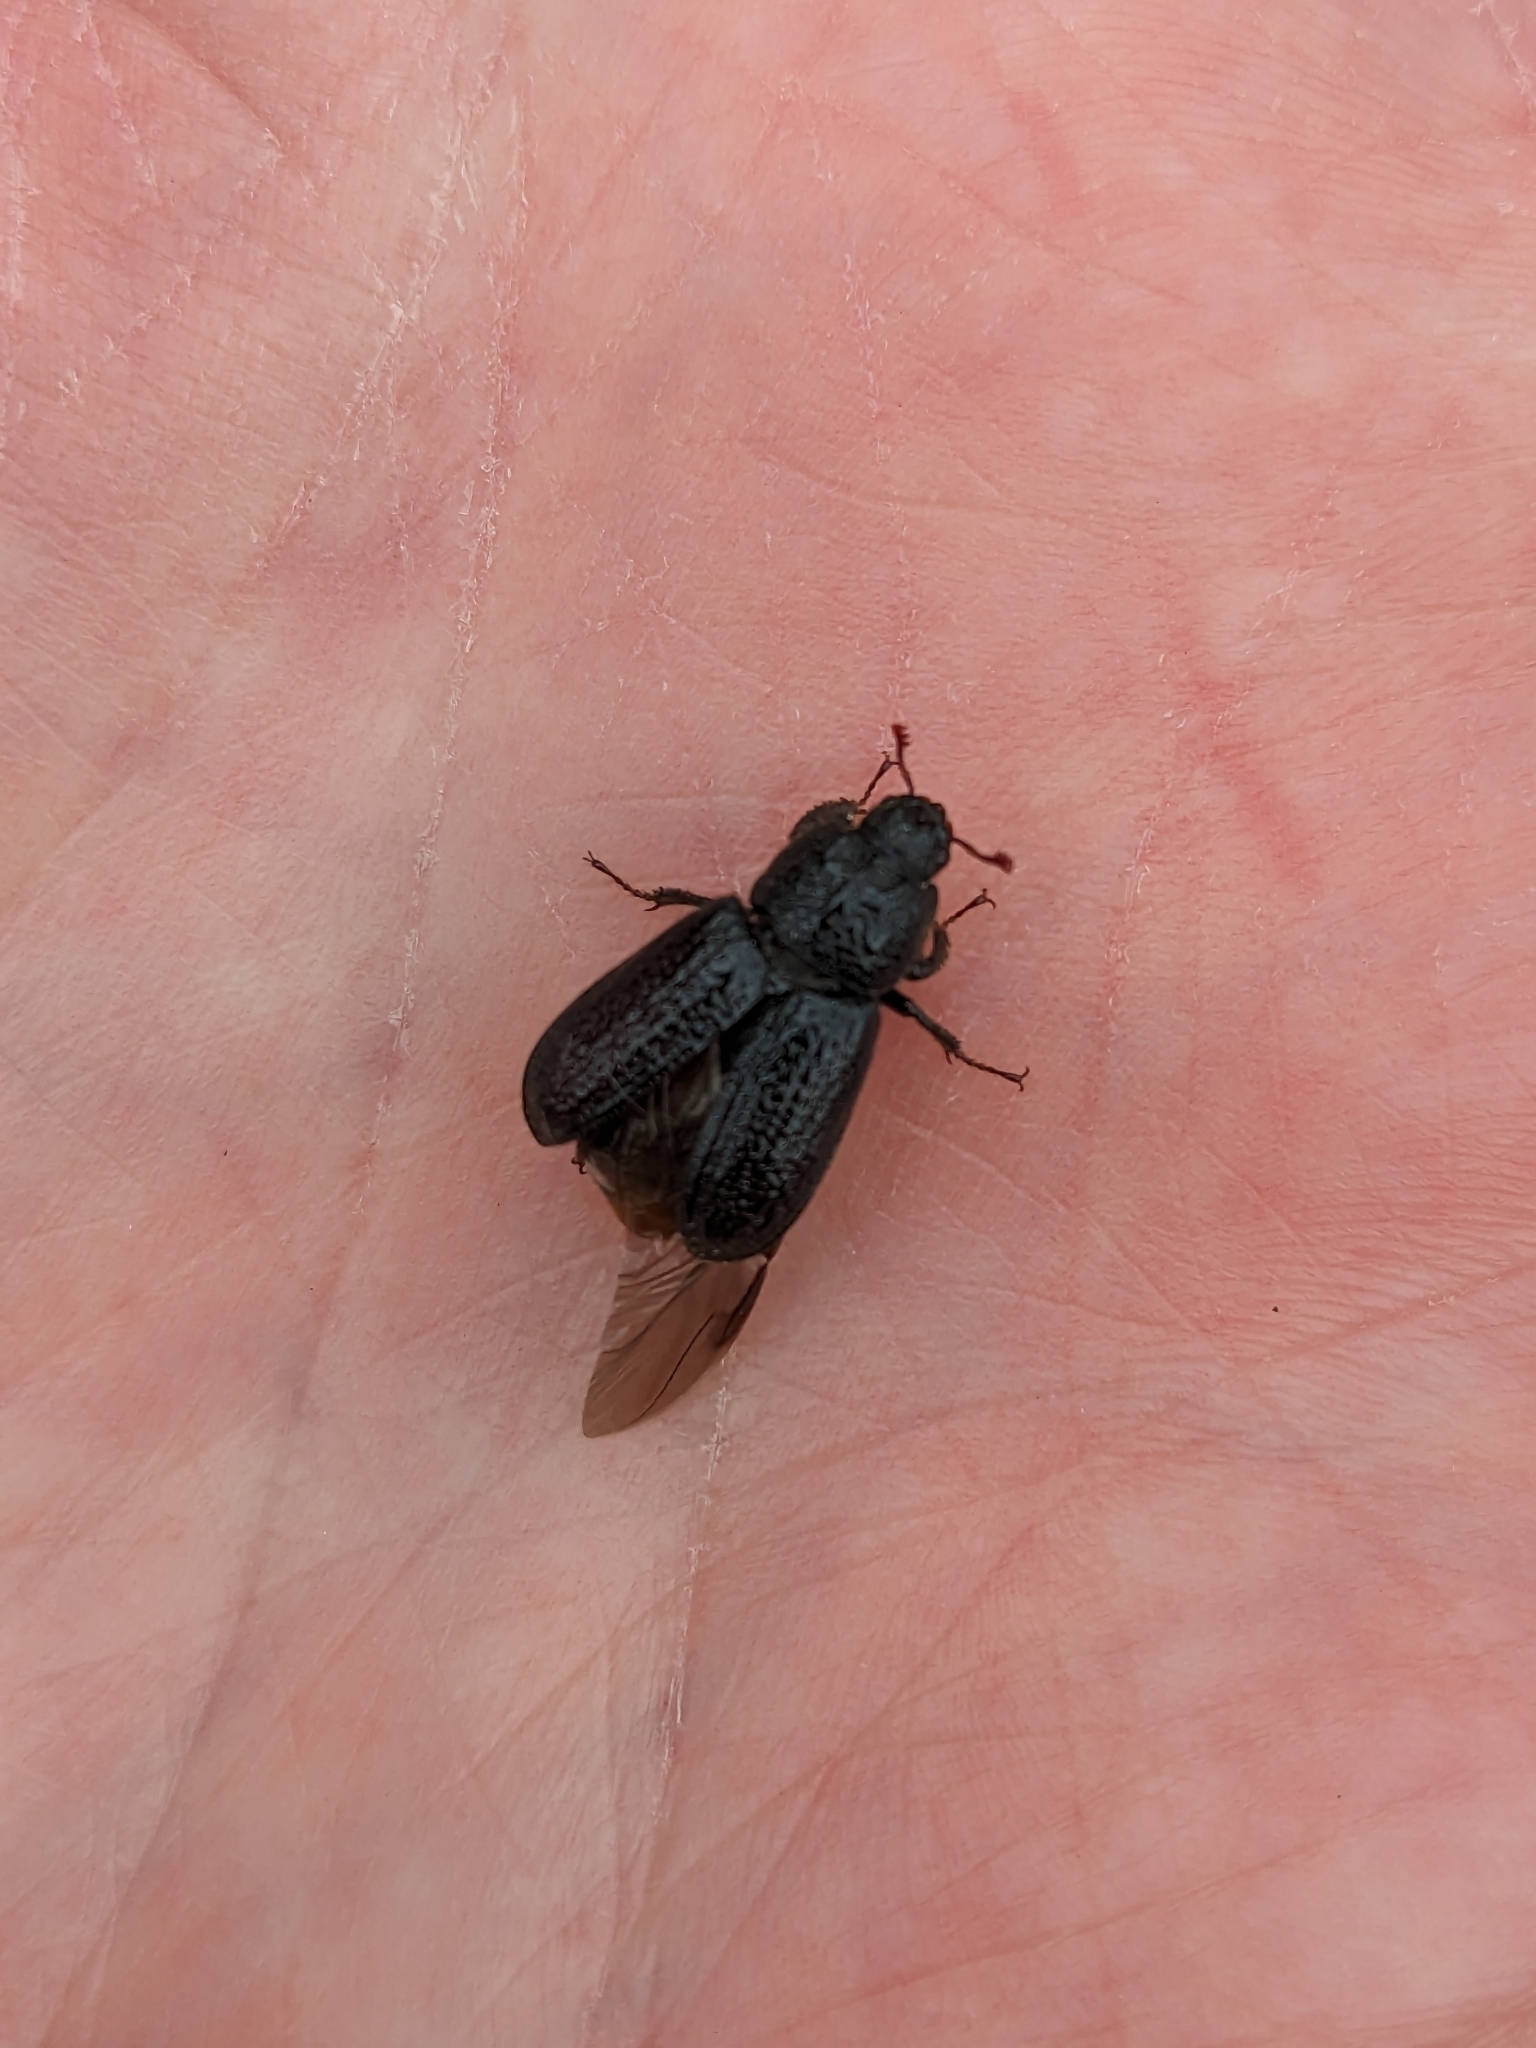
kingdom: Animalia
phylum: Arthropoda
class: Insecta
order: Coleoptera
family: Lucanidae
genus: Sinodendron
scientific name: Sinodendron cylindricum
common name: Rhinoceros beetle
